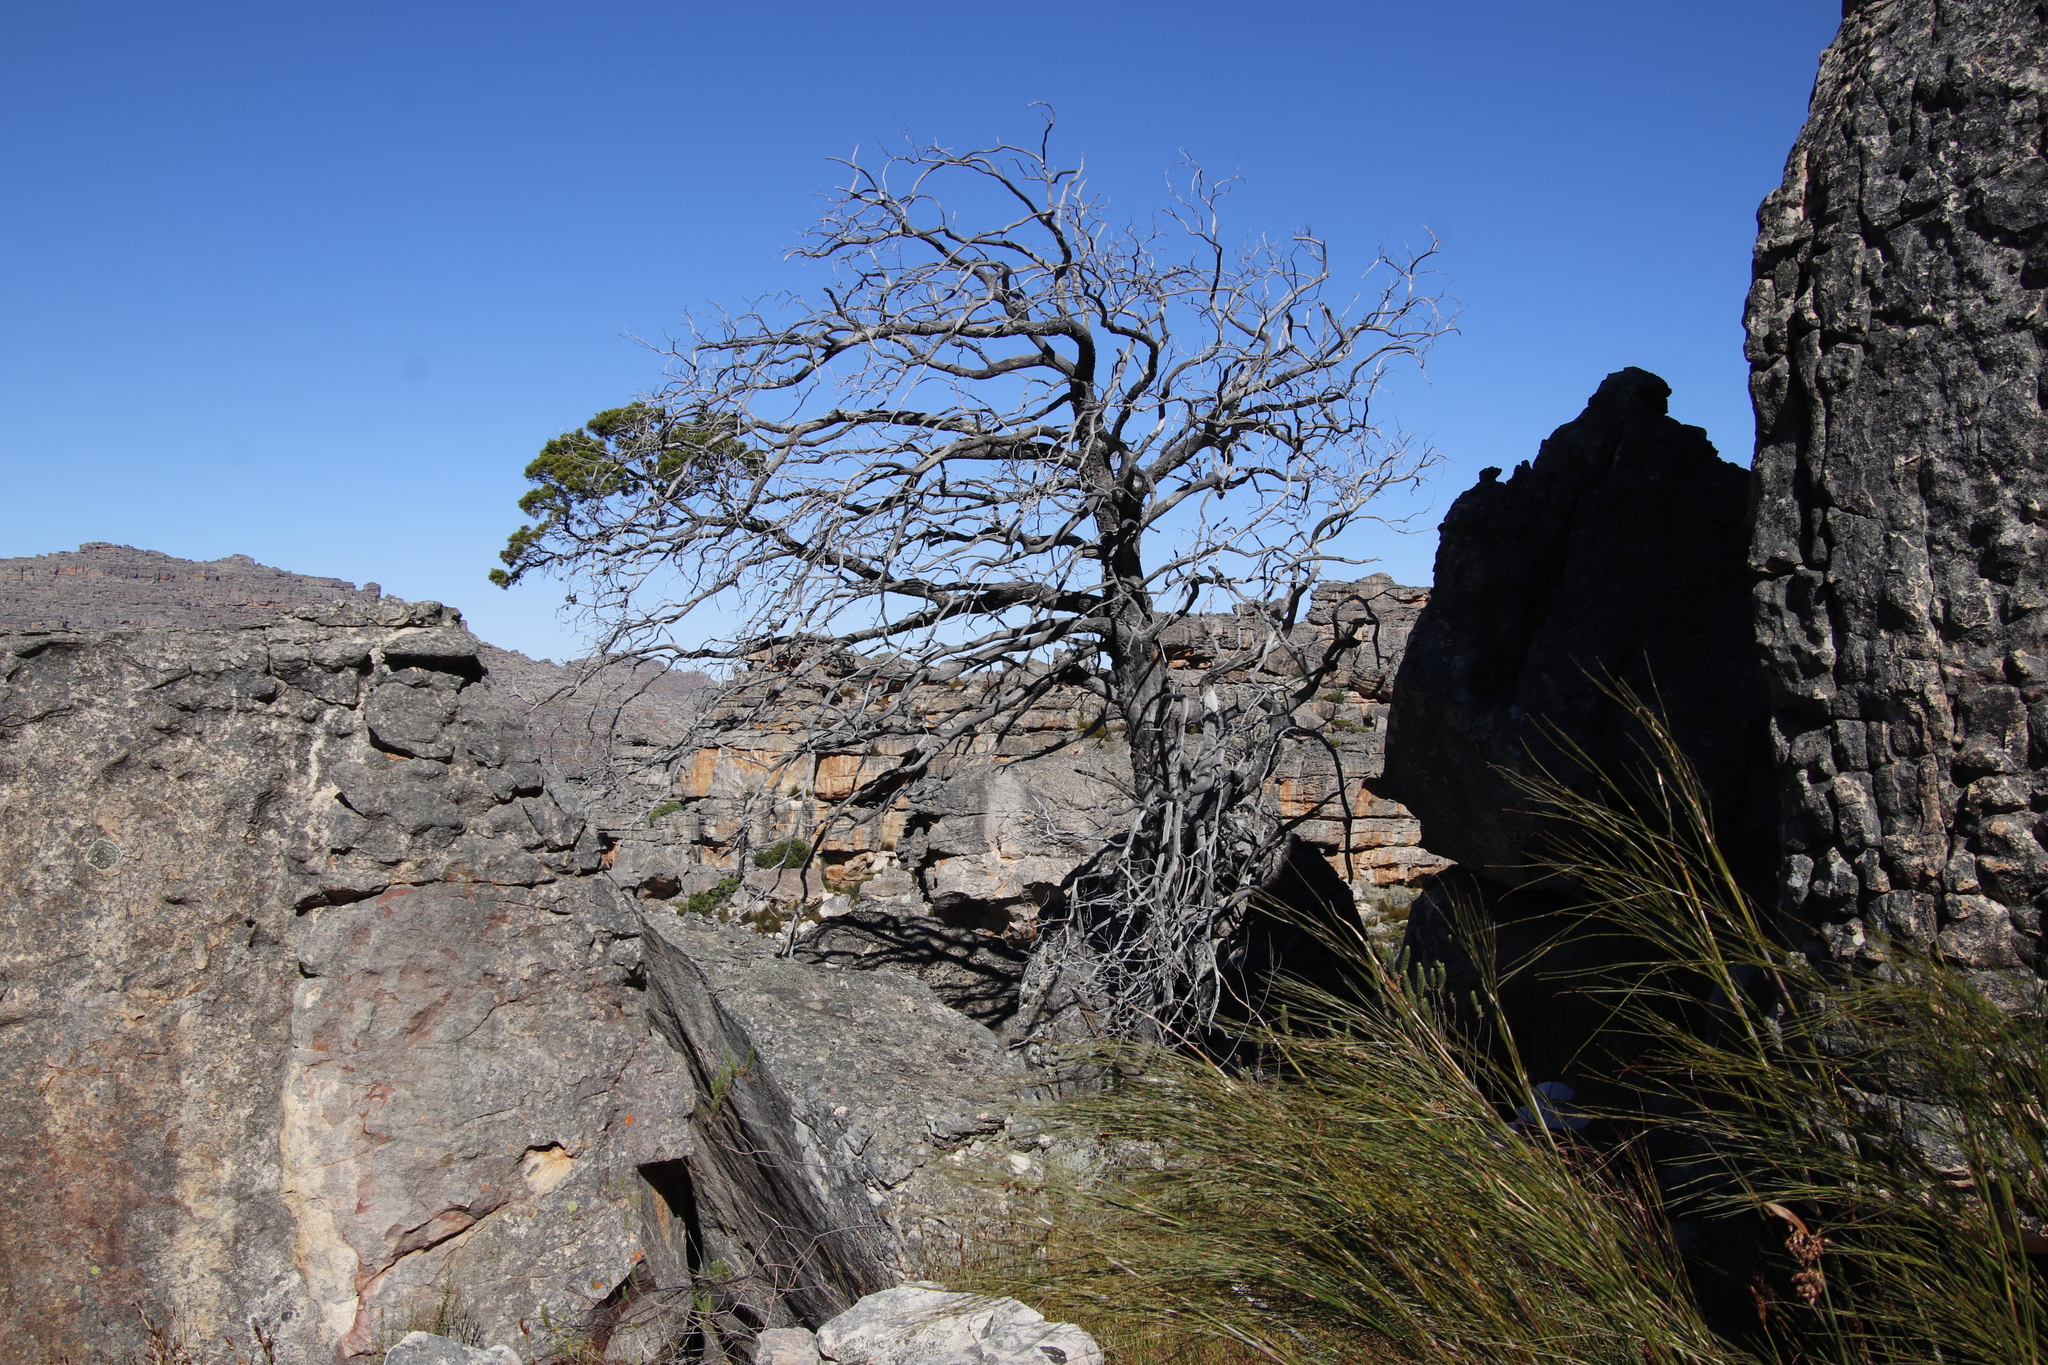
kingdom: Plantae
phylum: Tracheophyta
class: Pinopsida
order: Pinales
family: Cupressaceae
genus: Widdringtonia
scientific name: Widdringtonia nodiflora
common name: Cape cypress
